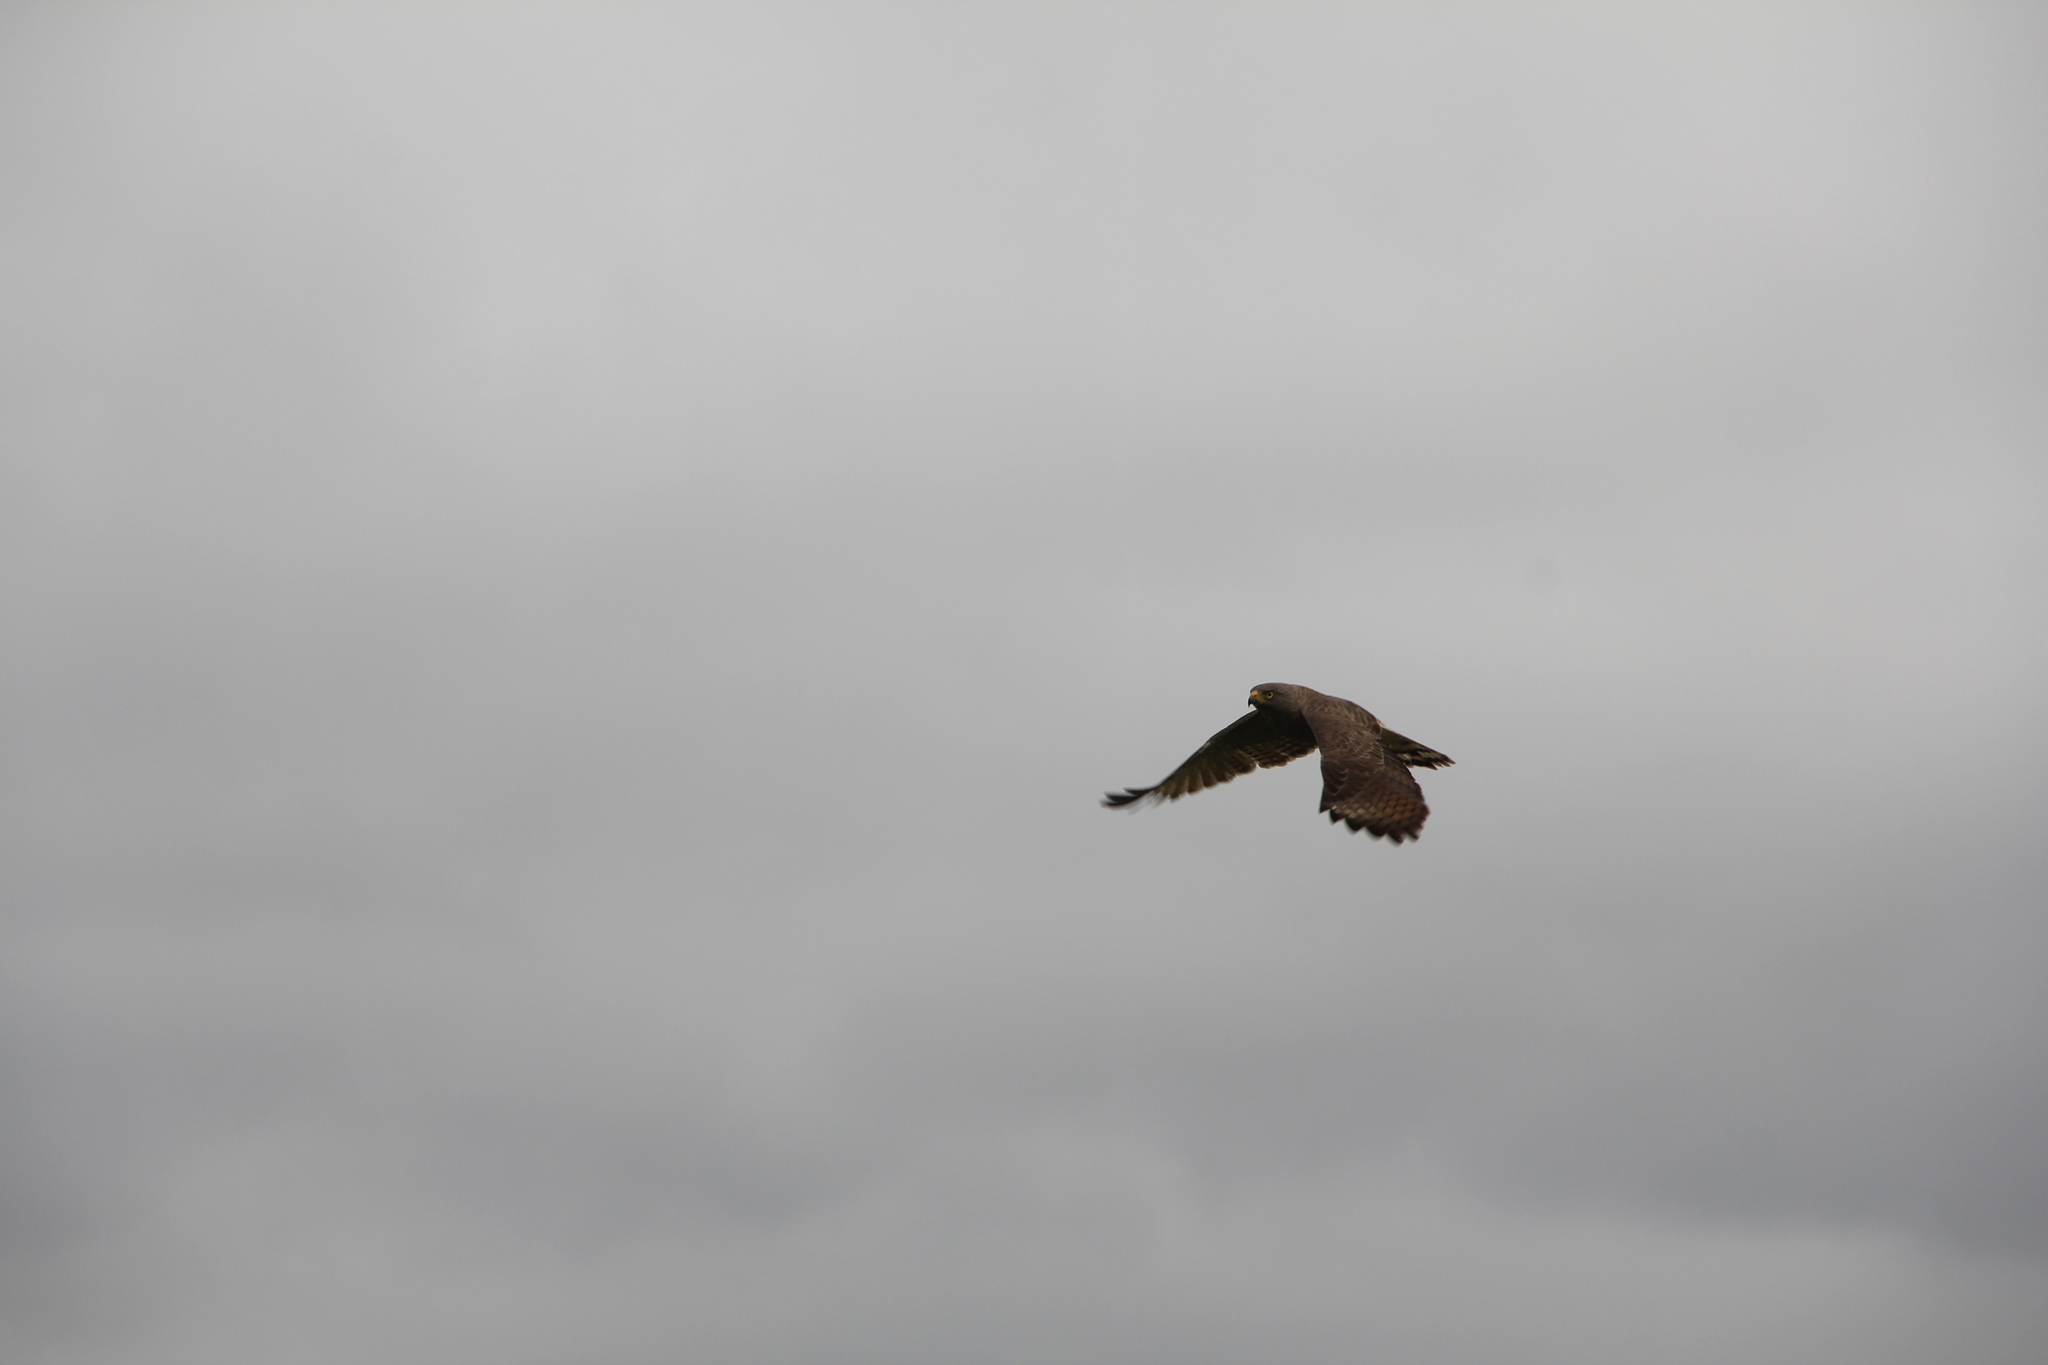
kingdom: Animalia
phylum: Chordata
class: Aves
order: Accipitriformes
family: Accipitridae
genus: Rupornis
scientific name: Rupornis magnirostris
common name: Roadside hawk
